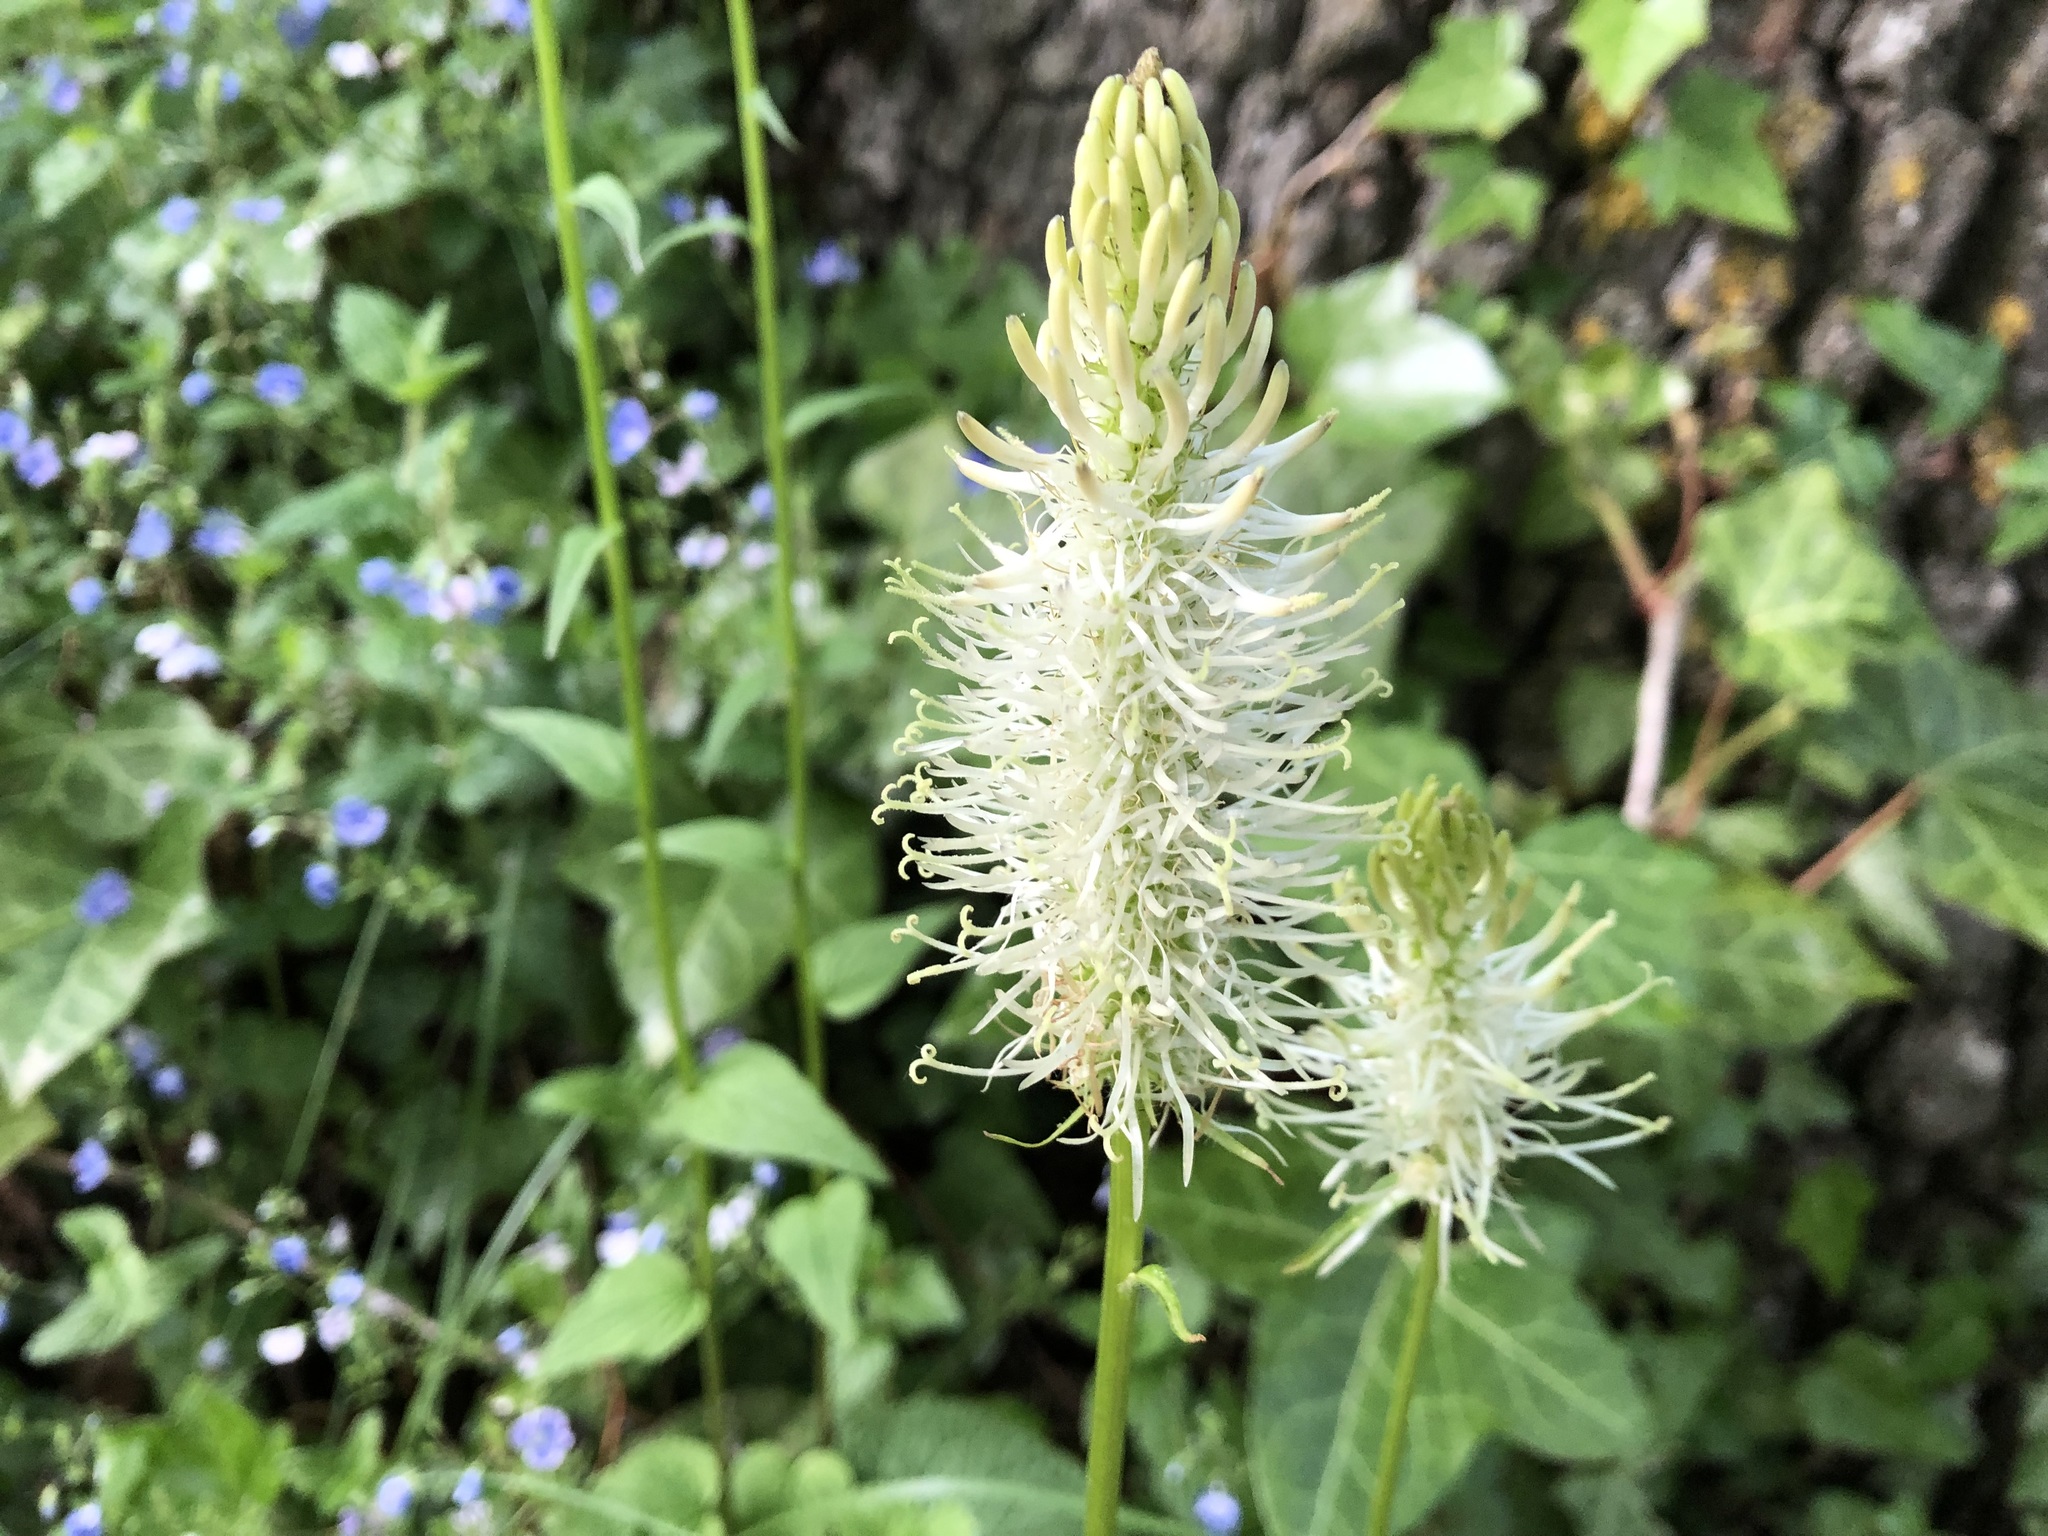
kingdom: Plantae
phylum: Tracheophyta
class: Magnoliopsida
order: Asterales
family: Campanulaceae
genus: Phyteuma
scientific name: Phyteuma spicatum
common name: Spiked rampion
